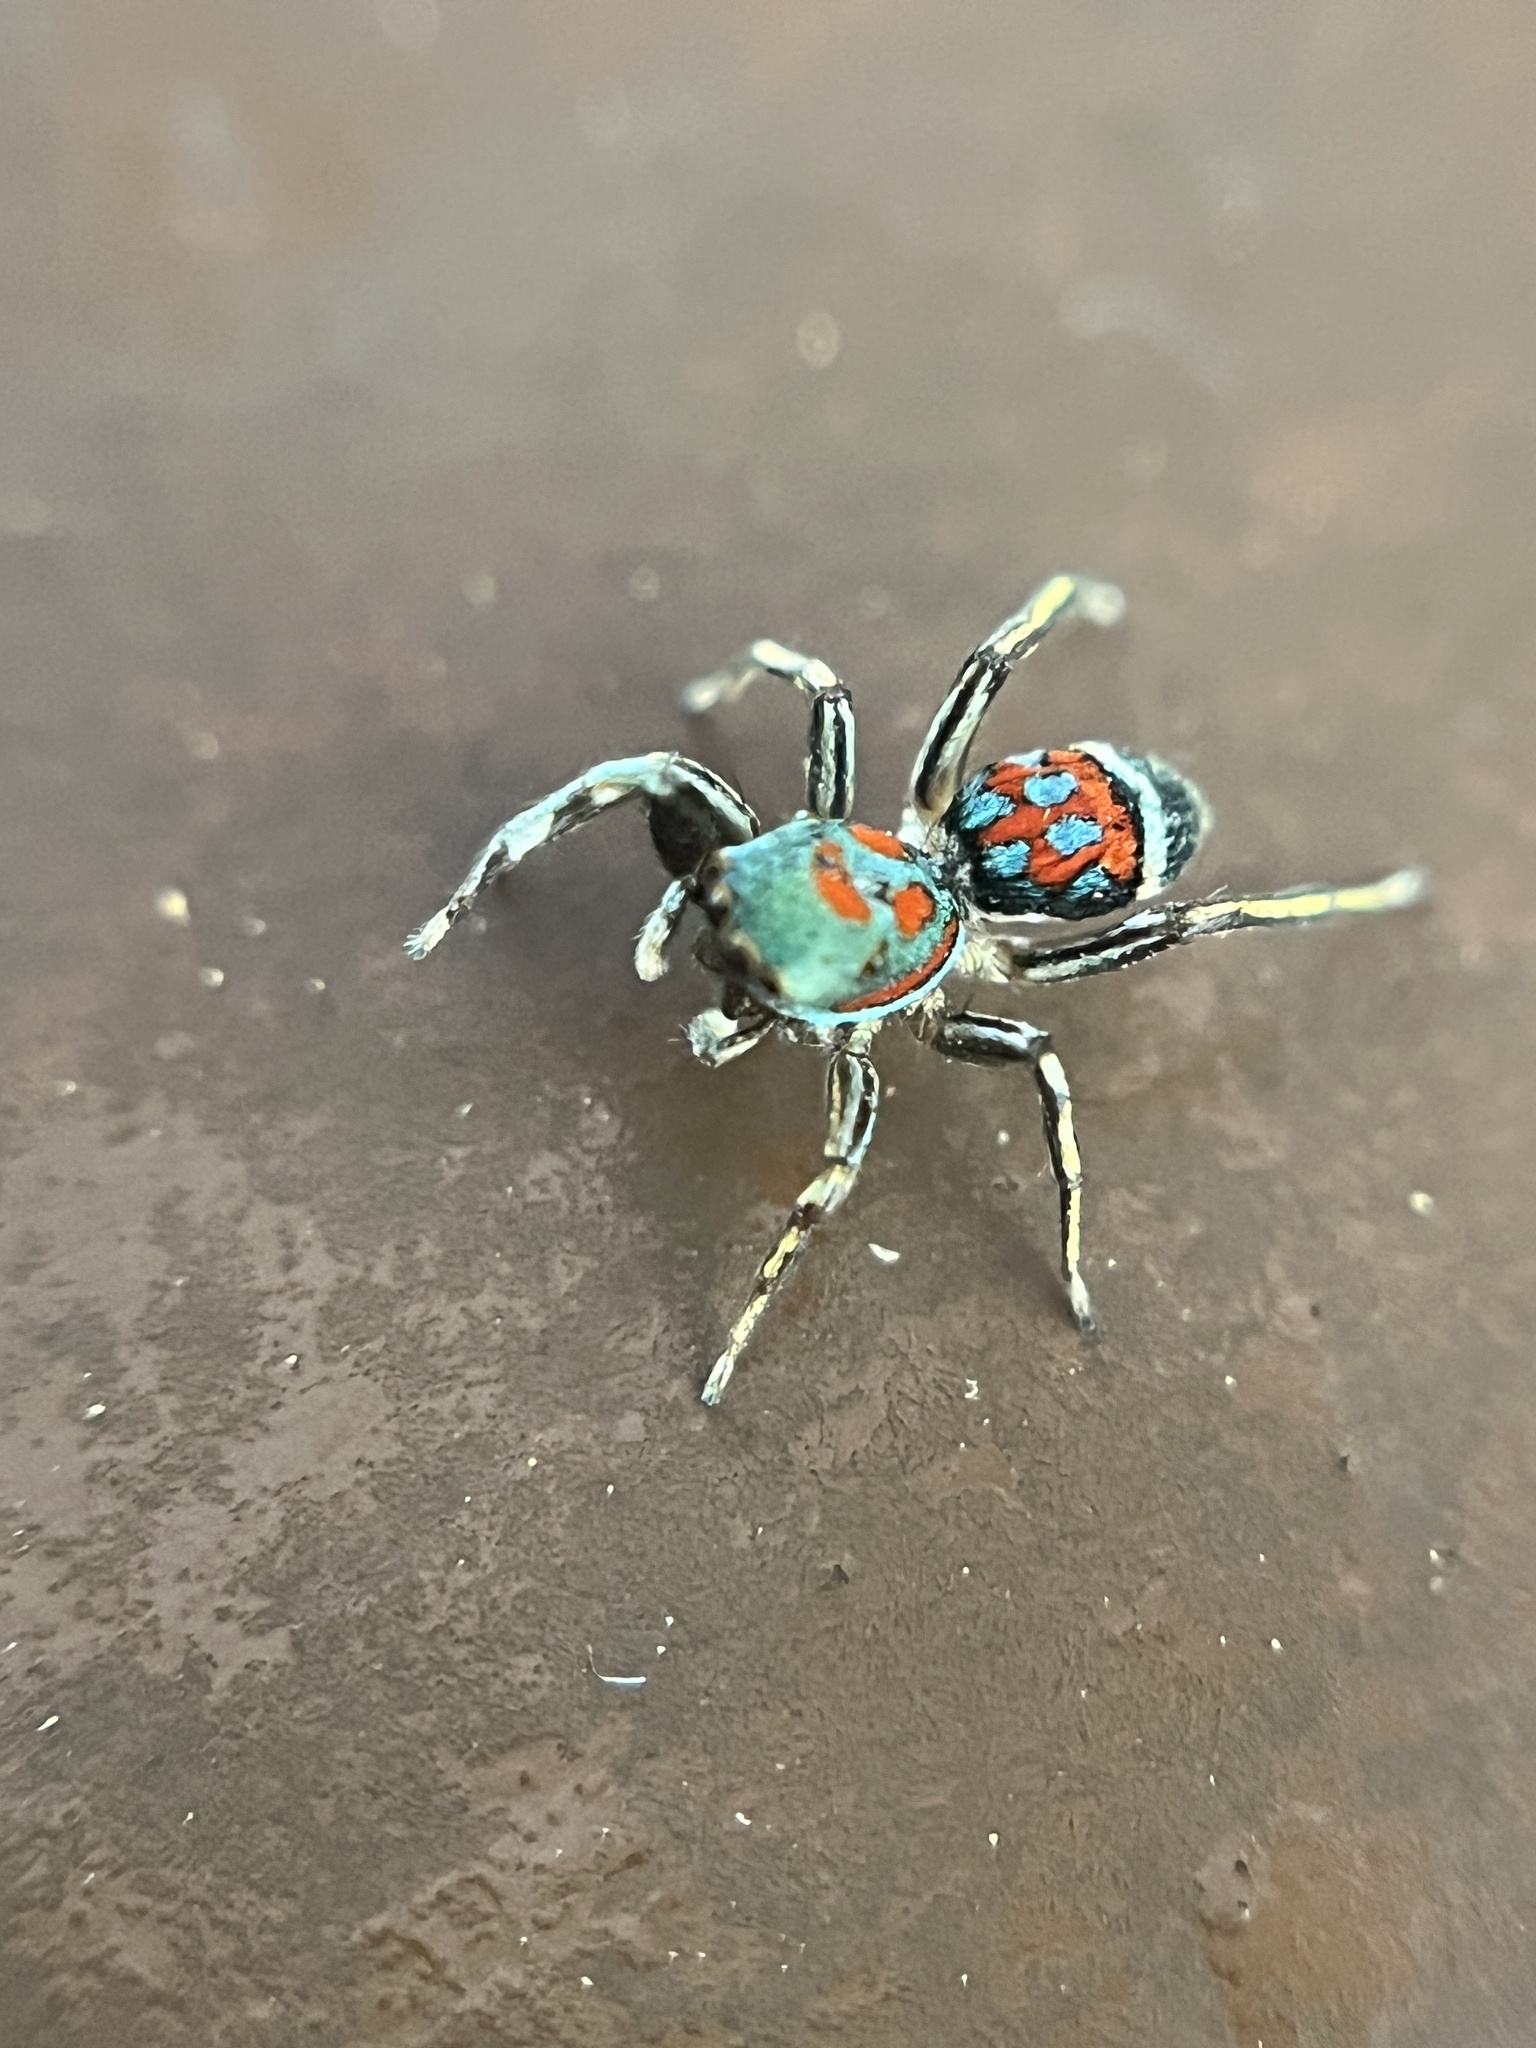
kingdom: Animalia
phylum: Arthropoda
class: Arachnida
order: Araneae
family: Salticidae
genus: Siler
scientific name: Siler semiglaucus
